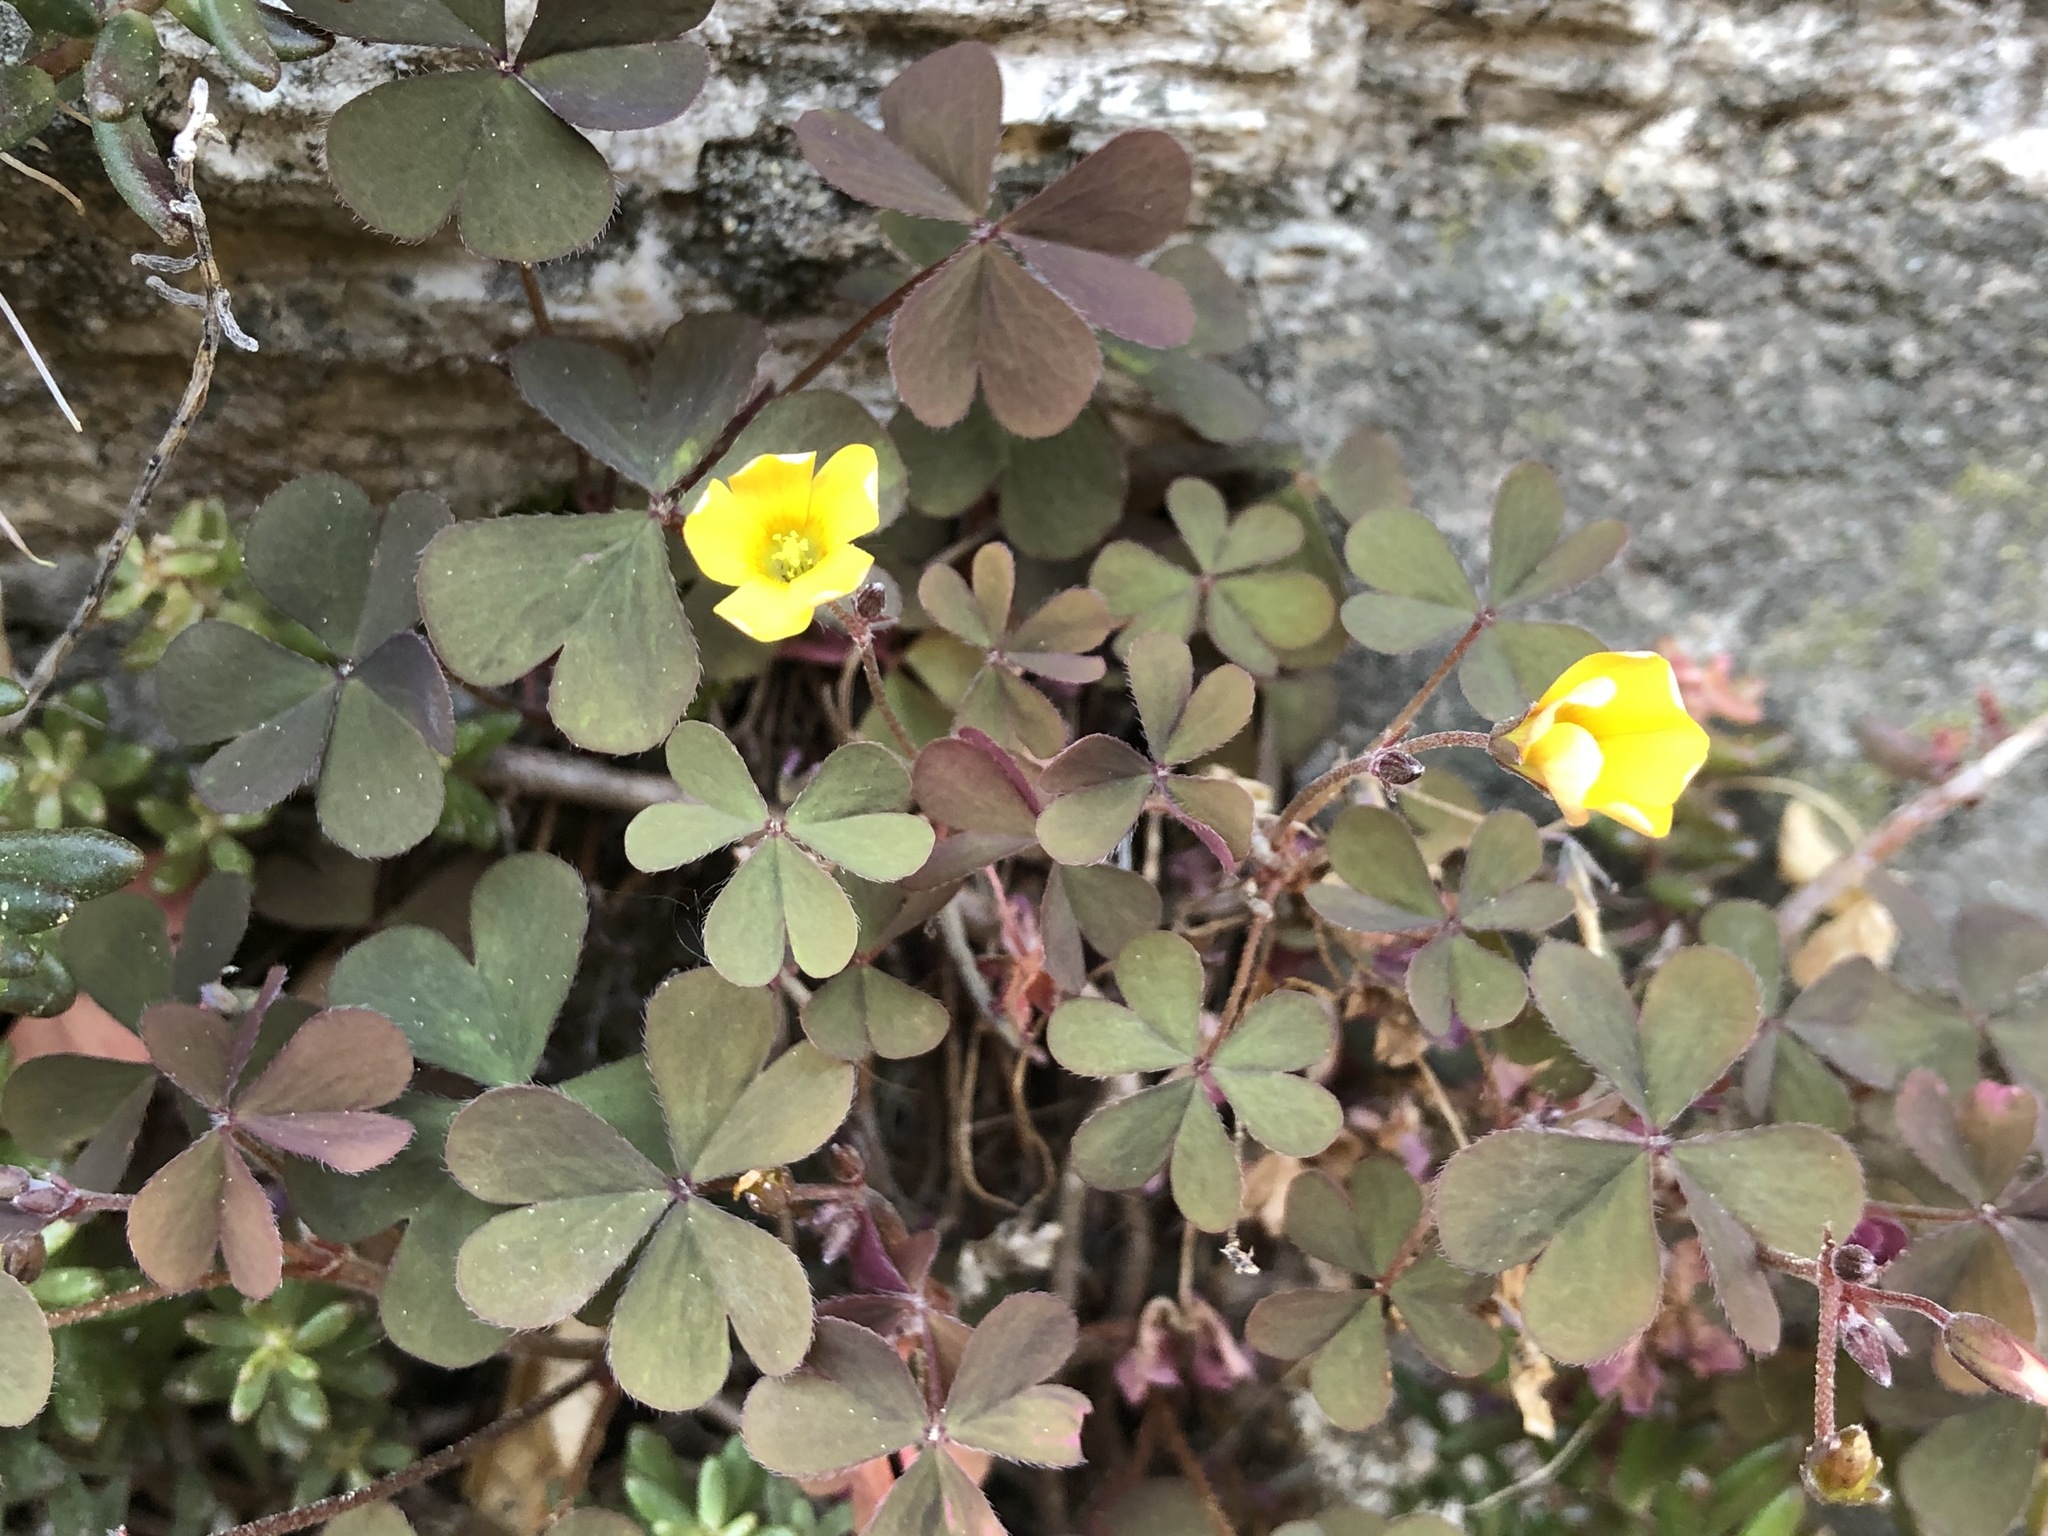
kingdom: Plantae
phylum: Tracheophyta
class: Magnoliopsida
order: Oxalidales
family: Oxalidaceae
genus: Oxalis
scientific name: Oxalis corniculata
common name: Procumbent yellow-sorrel
